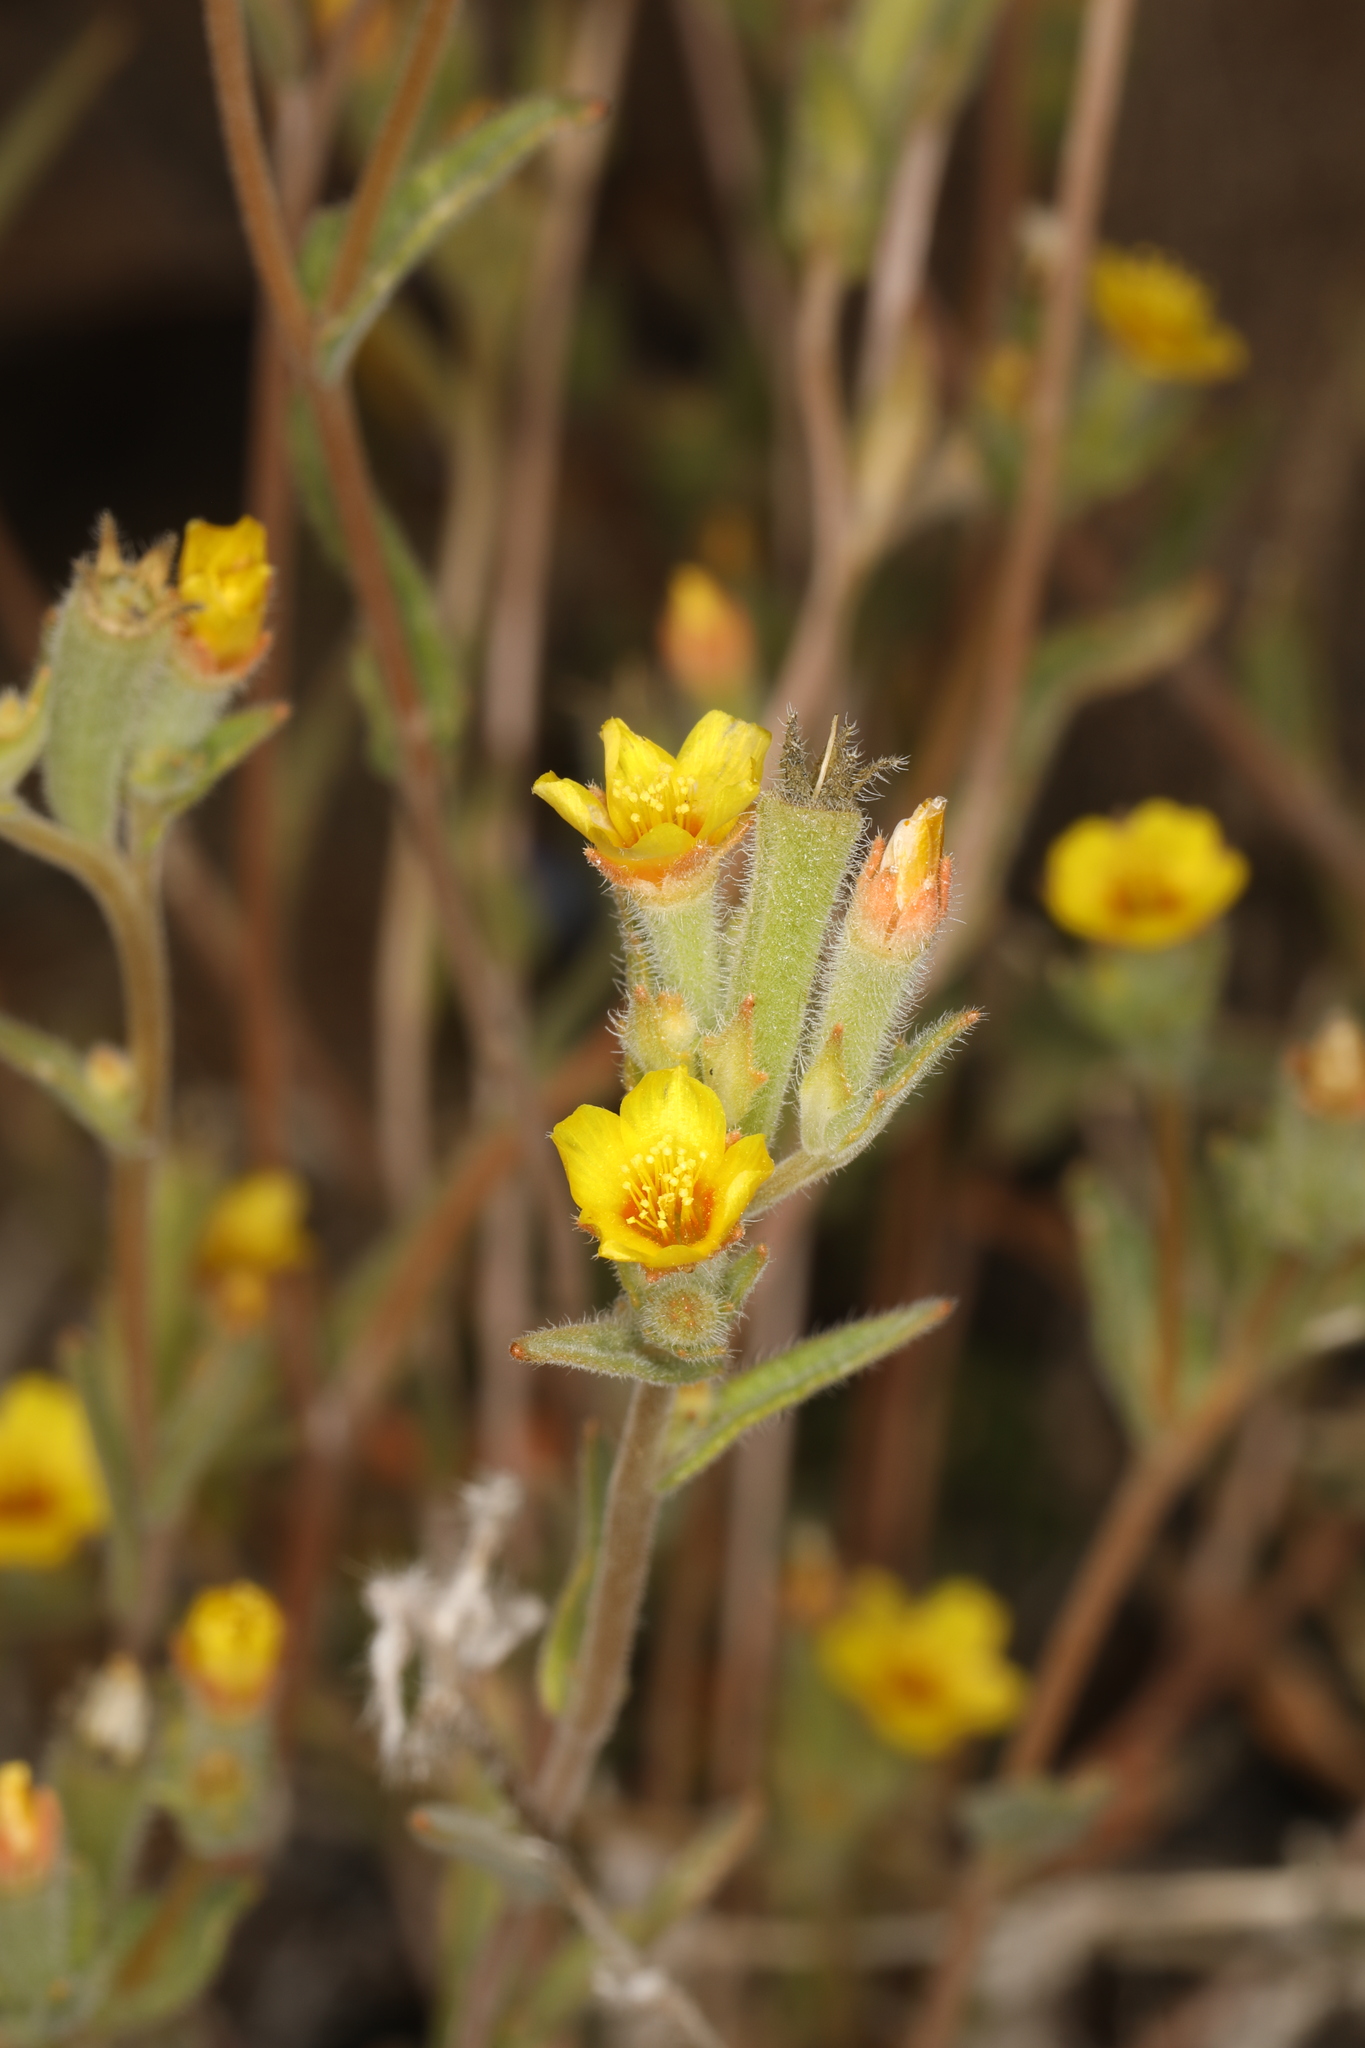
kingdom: Plantae
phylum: Tracheophyta
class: Magnoliopsida
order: Cornales
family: Loasaceae
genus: Mentzelia
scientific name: Mentzelia montana
